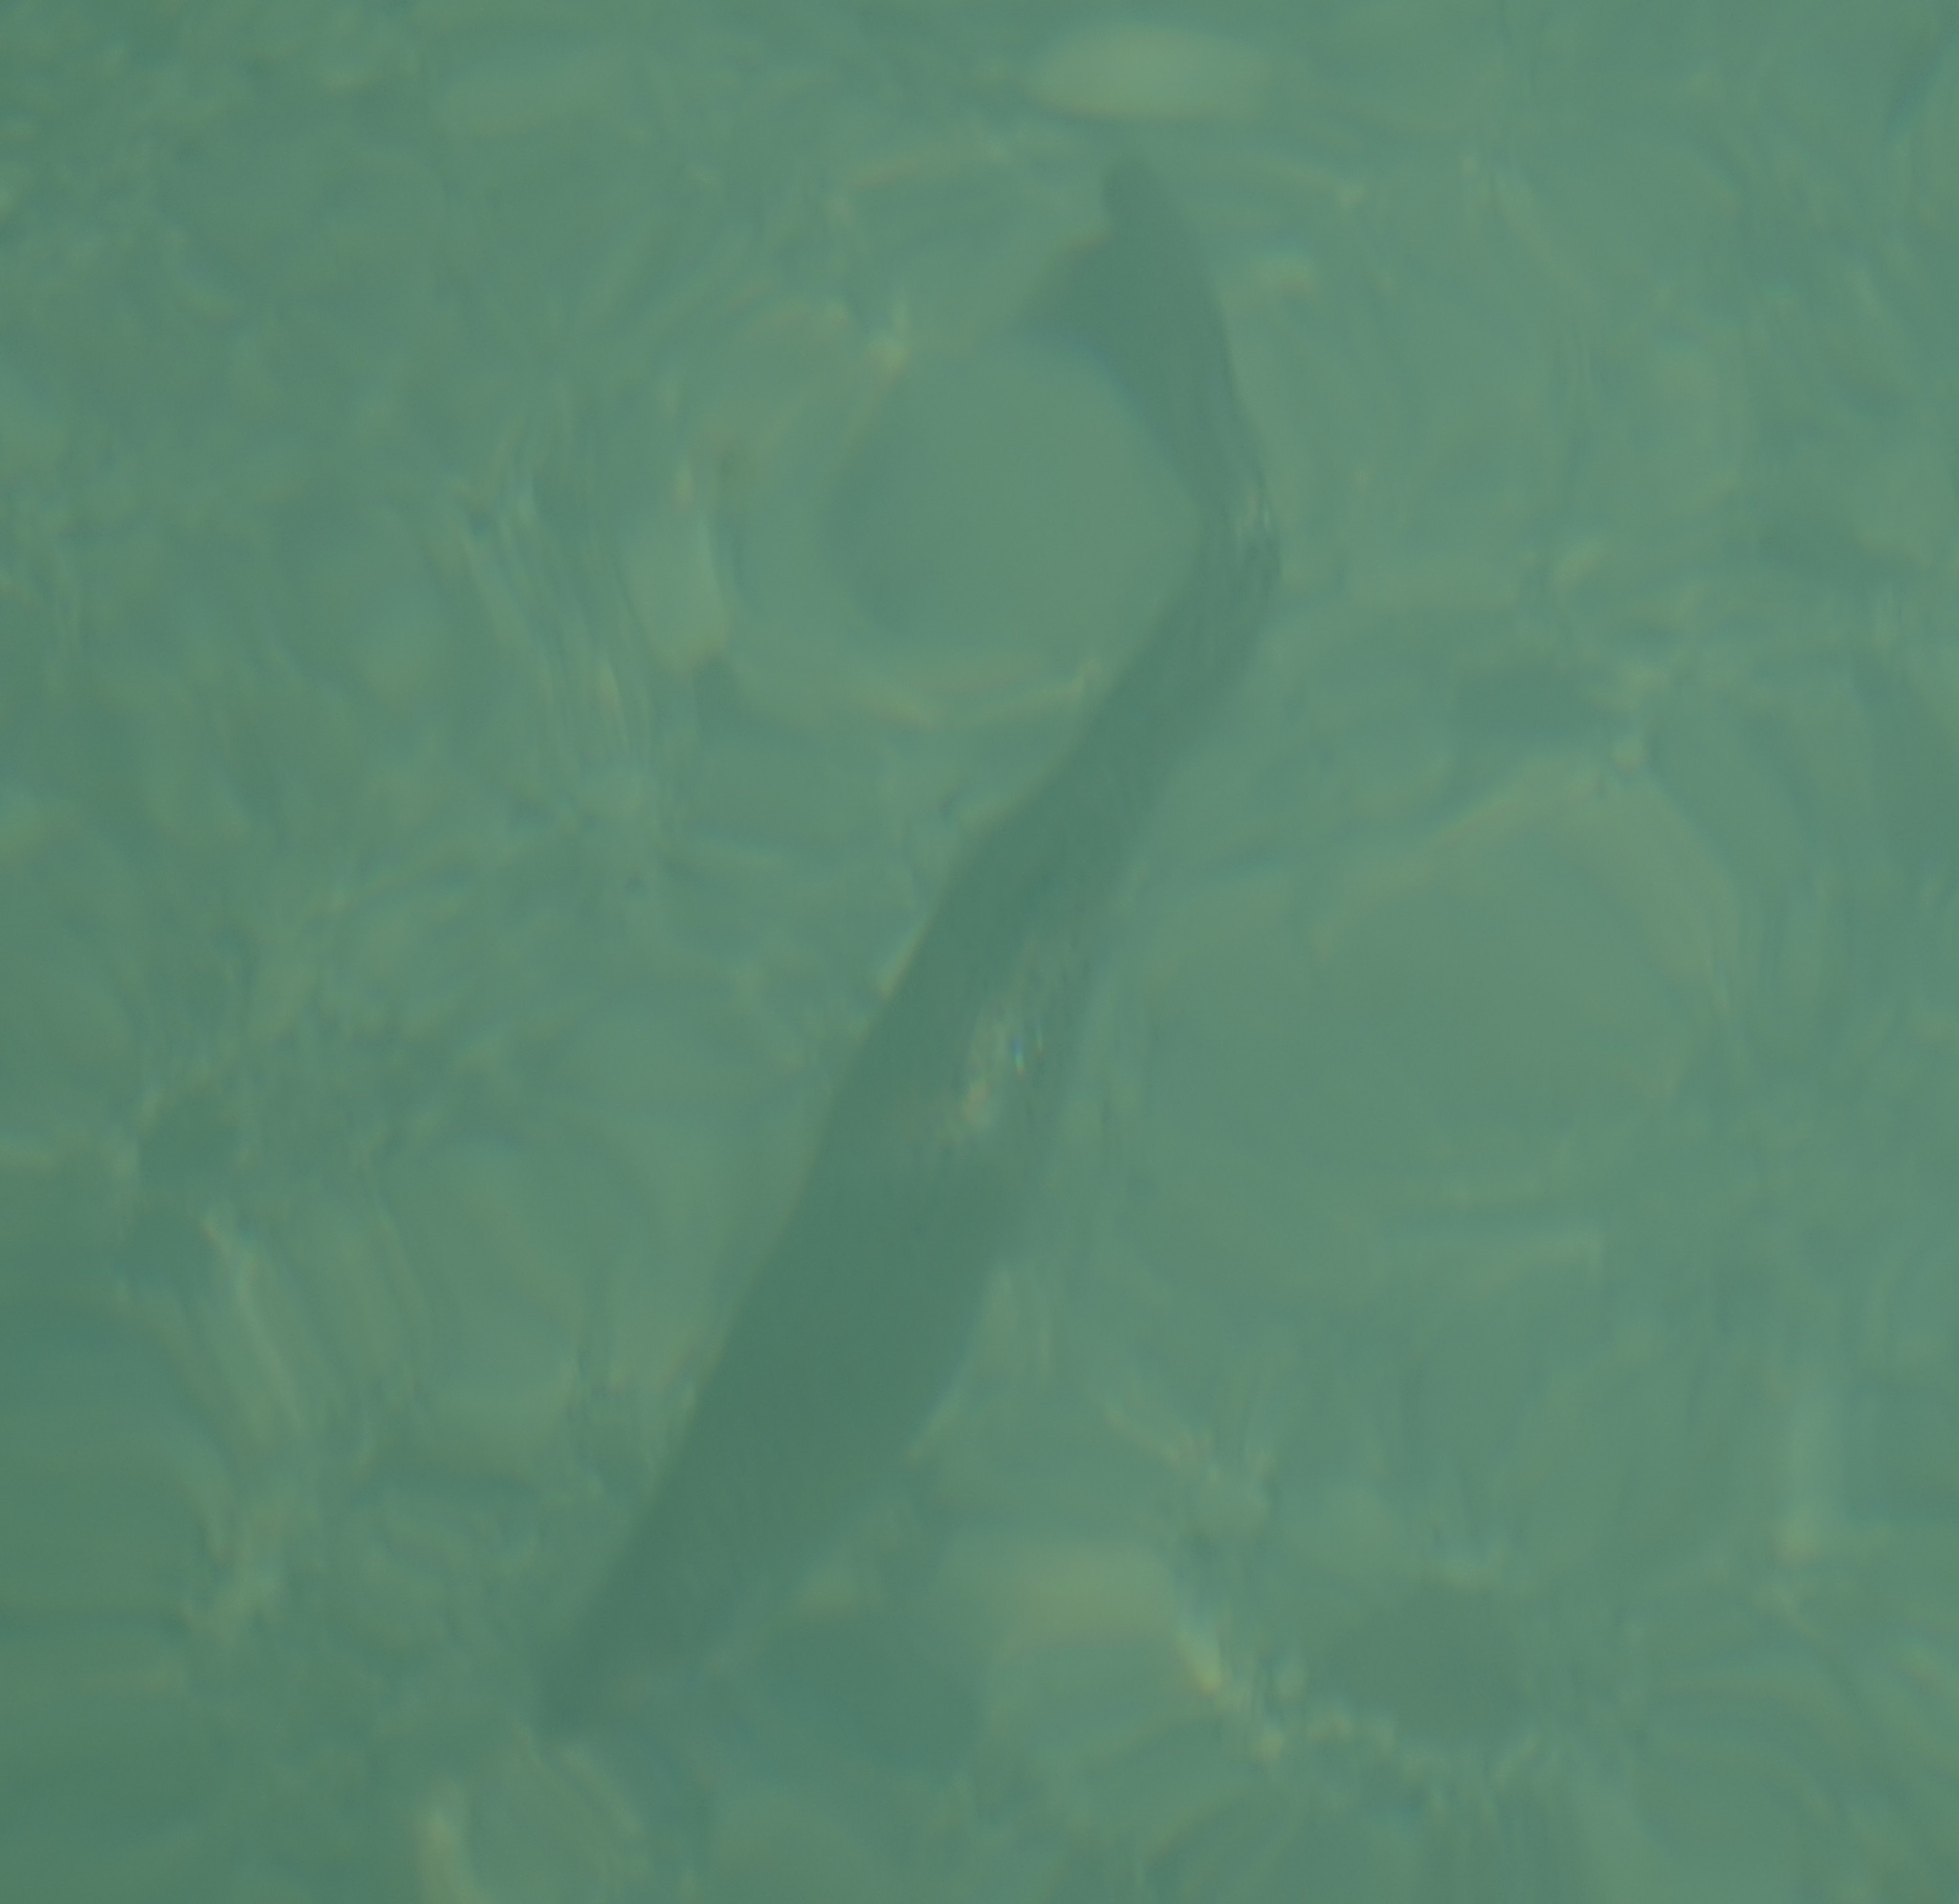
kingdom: Animalia
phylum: Chordata
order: Salmoniformes
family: Salmonidae
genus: Oncorhynchus
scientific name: Oncorhynchus mykiss
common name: Rainbow trout
